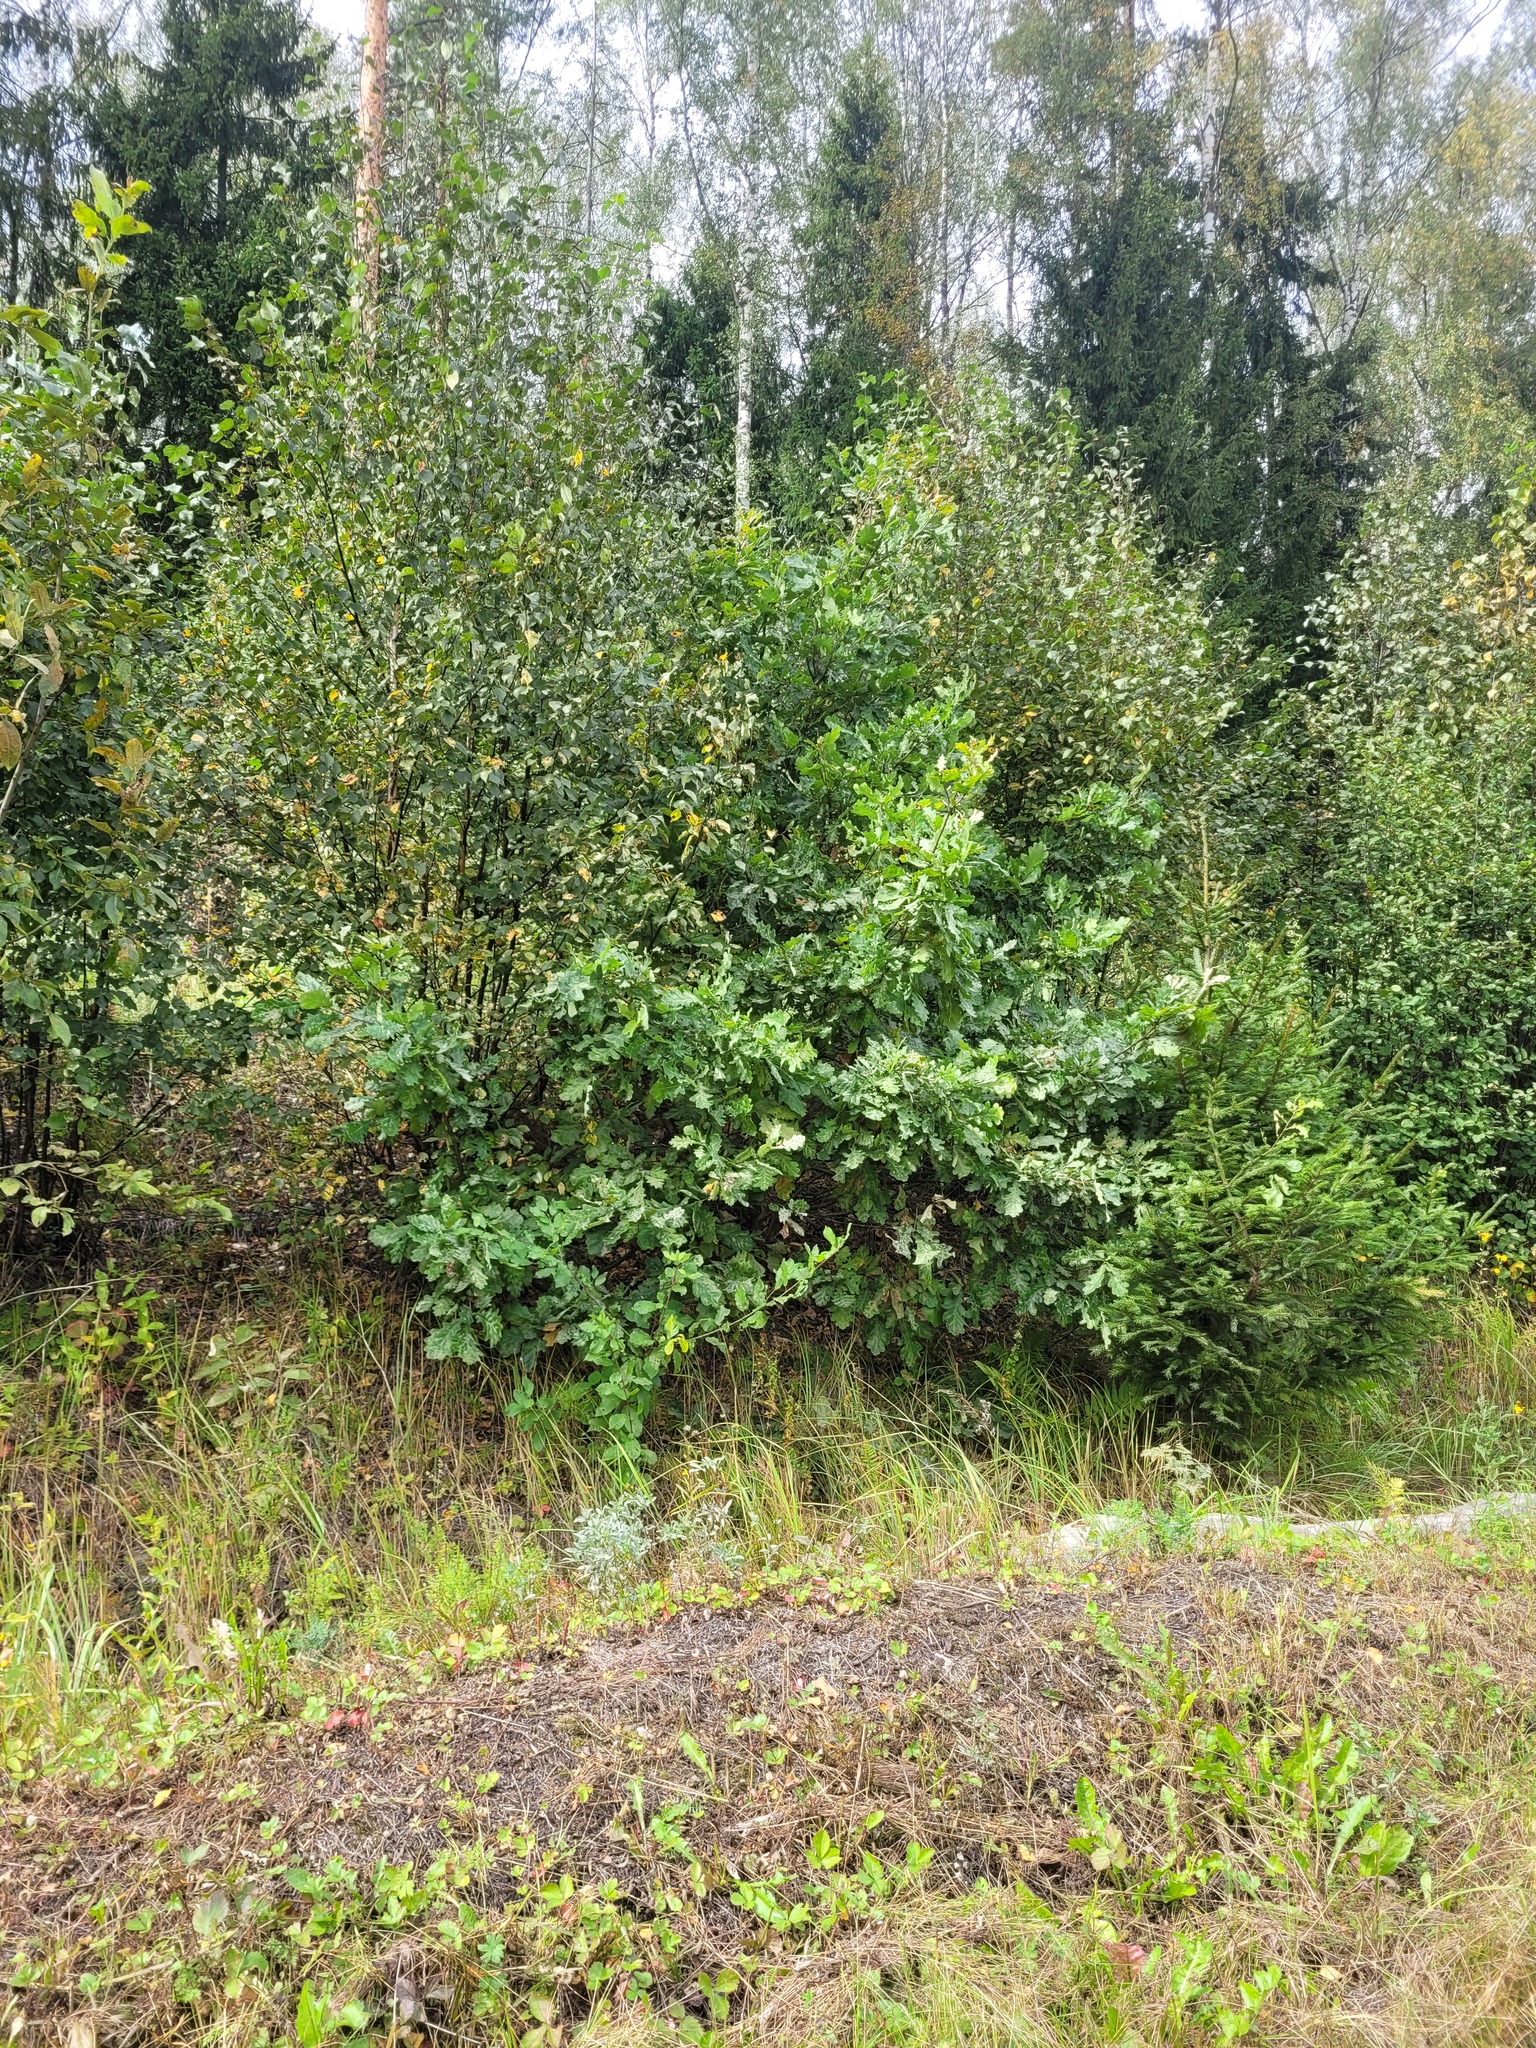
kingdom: Plantae
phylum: Tracheophyta
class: Magnoliopsida
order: Fagales
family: Fagaceae
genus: Quercus
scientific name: Quercus robur
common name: Pedunculate oak
